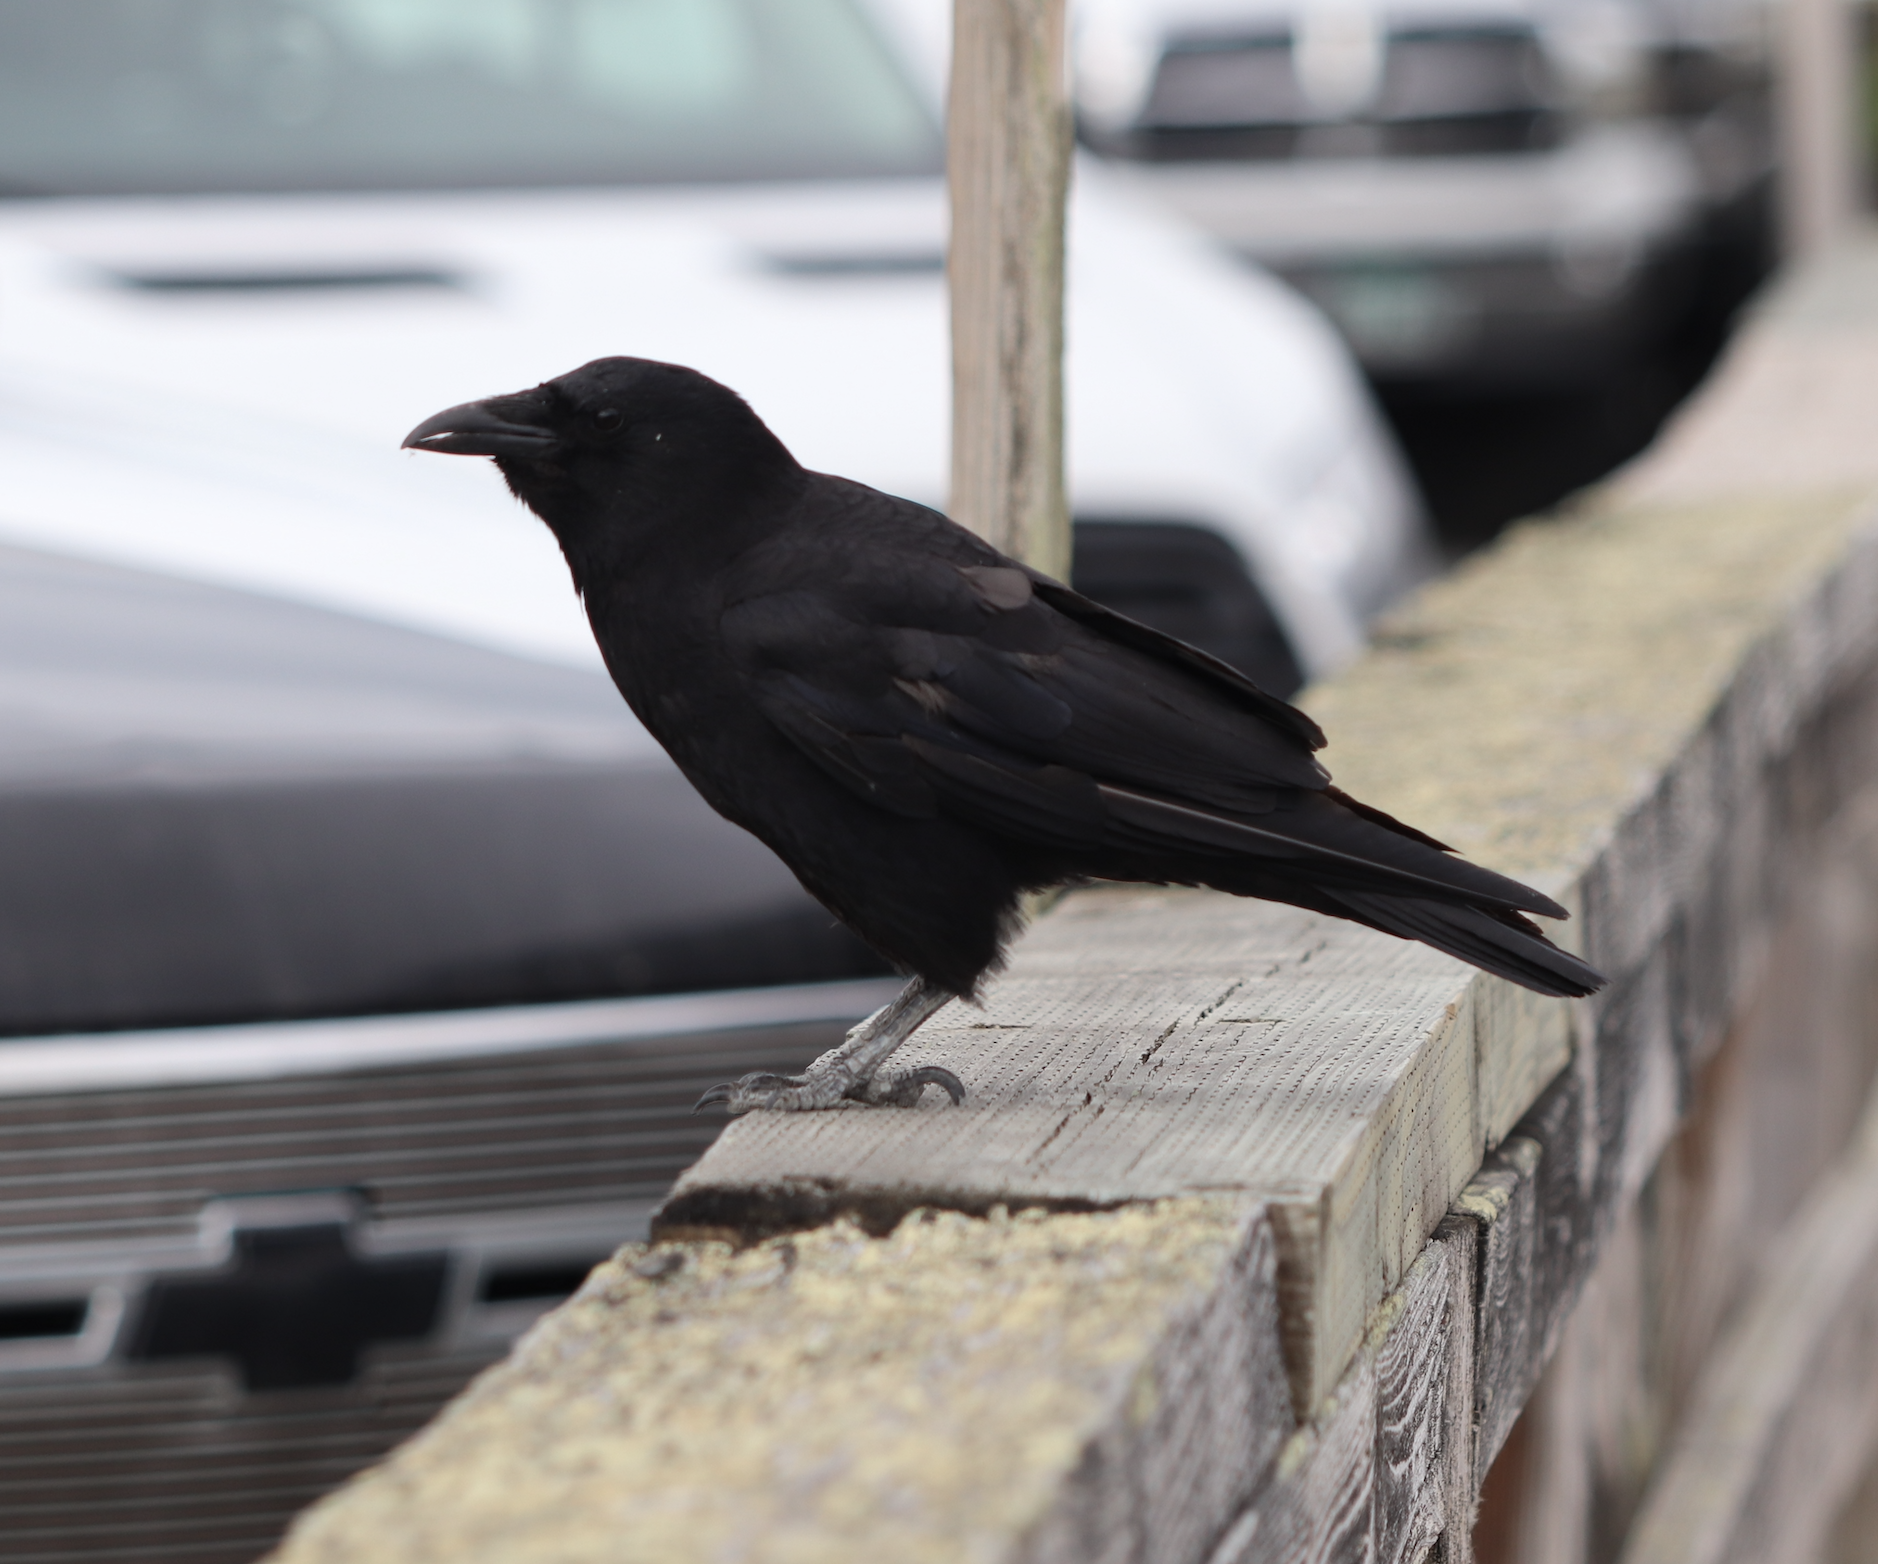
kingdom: Animalia
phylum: Chordata
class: Aves
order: Passeriformes
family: Corvidae
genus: Corvus
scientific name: Corvus brachyrhynchos
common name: American crow
